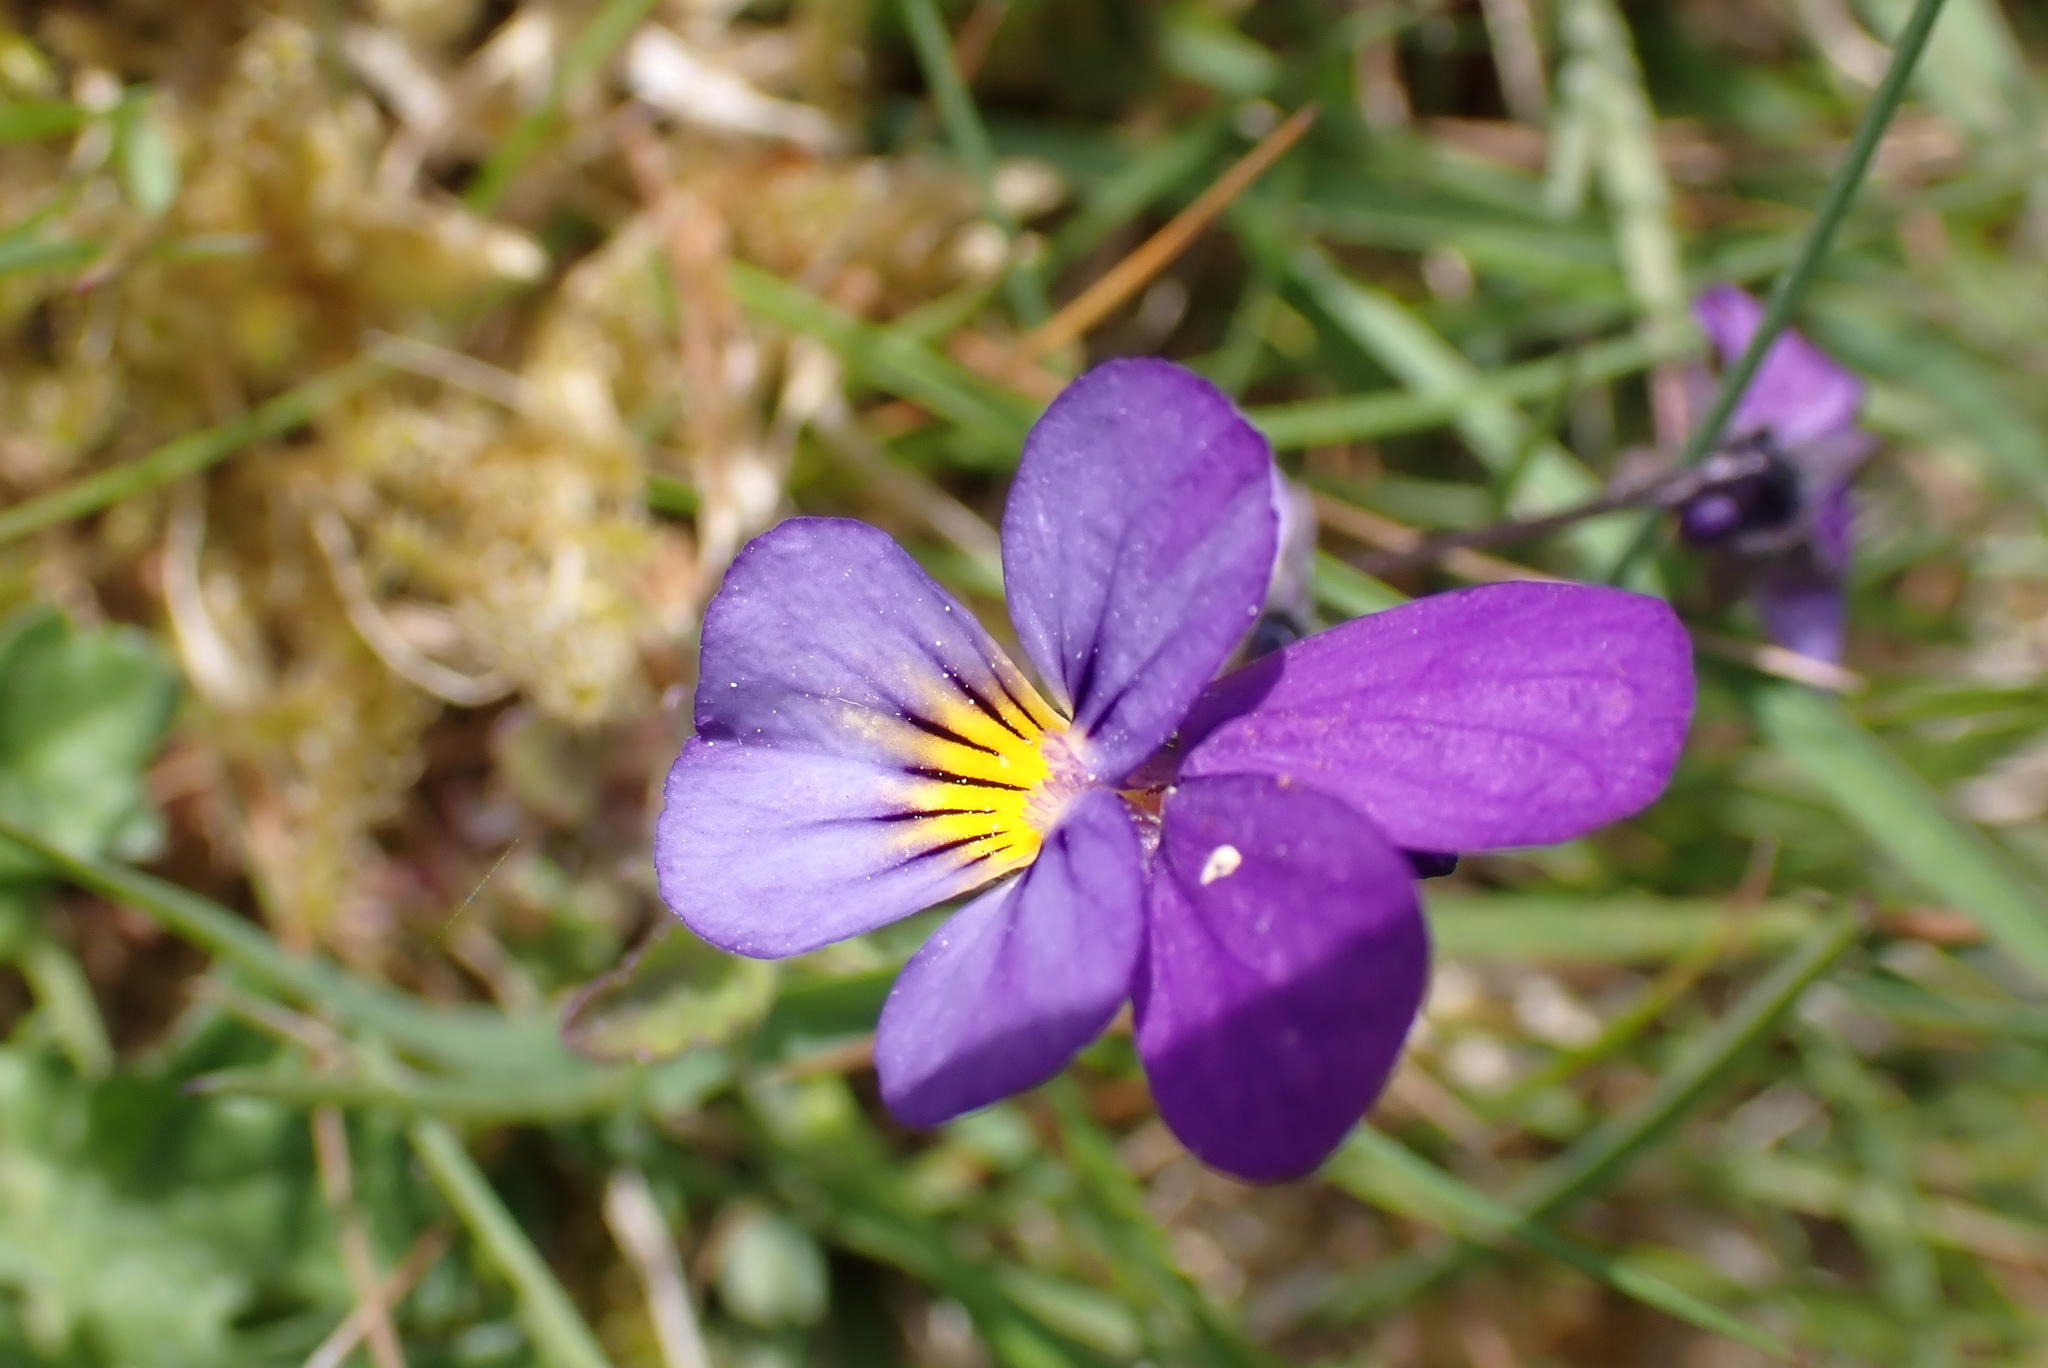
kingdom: Plantae
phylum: Tracheophyta
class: Magnoliopsida
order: Malpighiales
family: Violaceae
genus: Viola
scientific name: Viola tricolor
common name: Pansy
